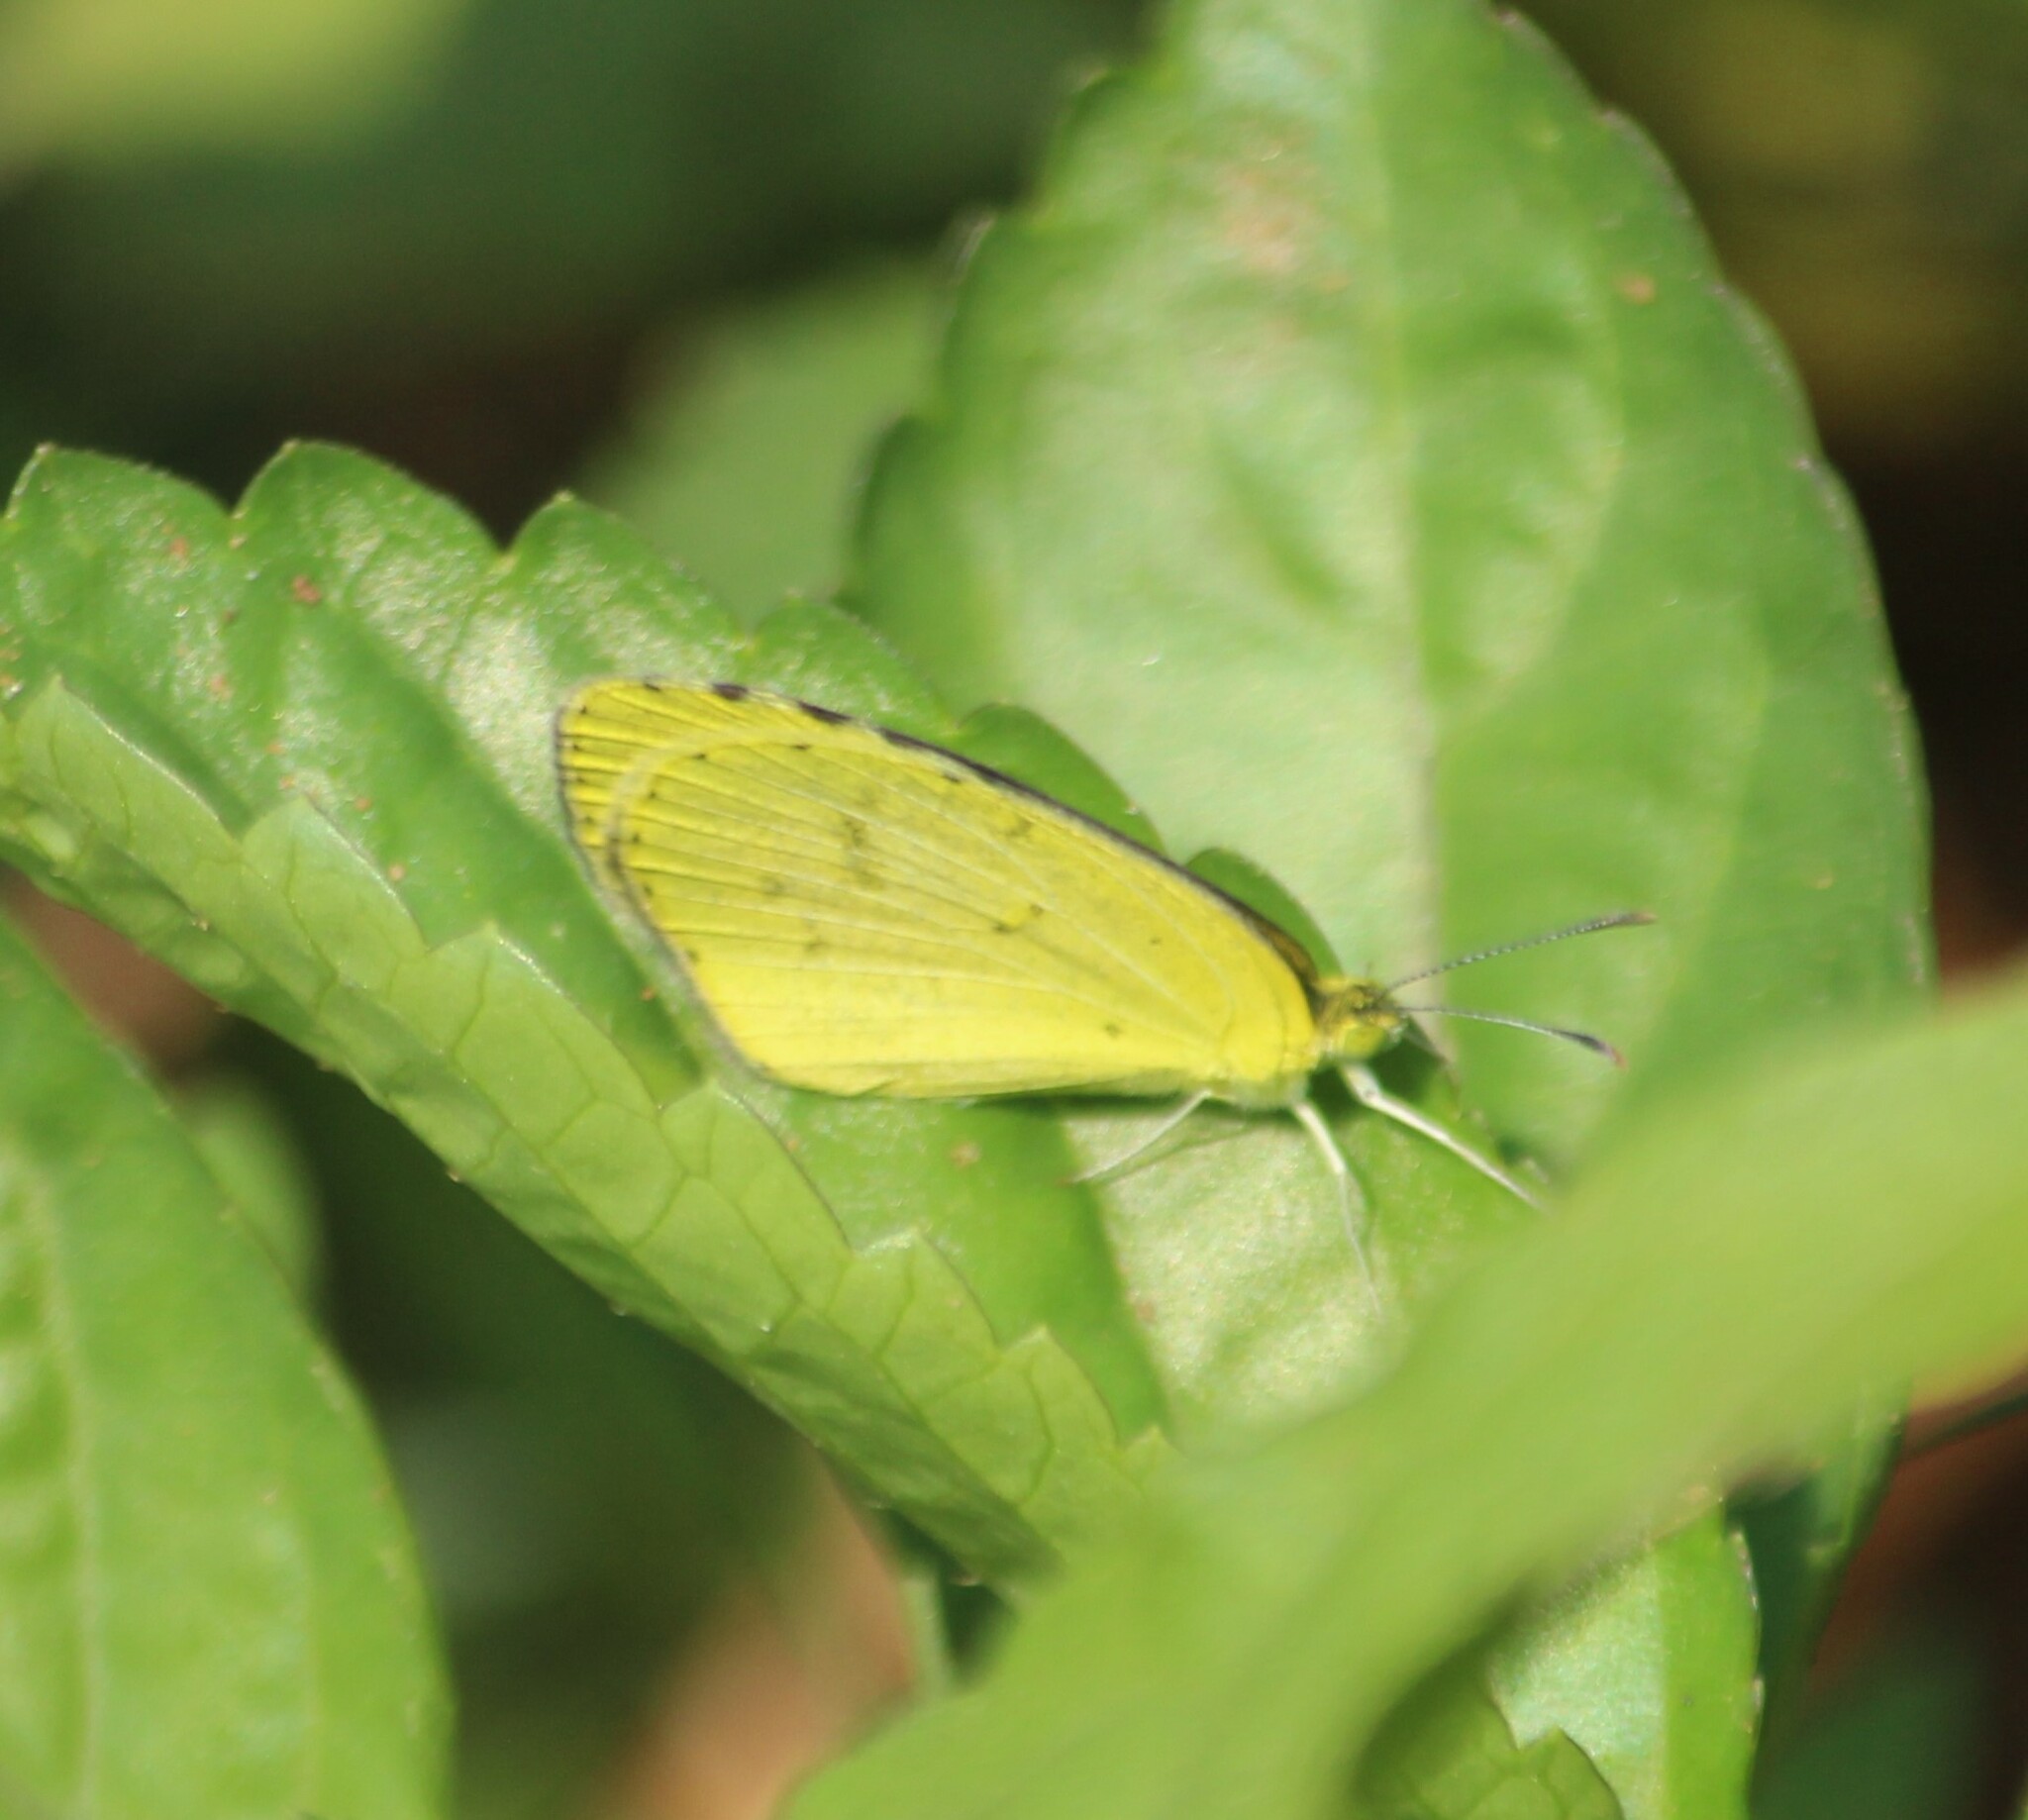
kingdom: Animalia
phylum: Arthropoda
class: Insecta
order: Lepidoptera
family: Pieridae
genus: Eurema
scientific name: Eurema brigitta
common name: Small grass yellow
